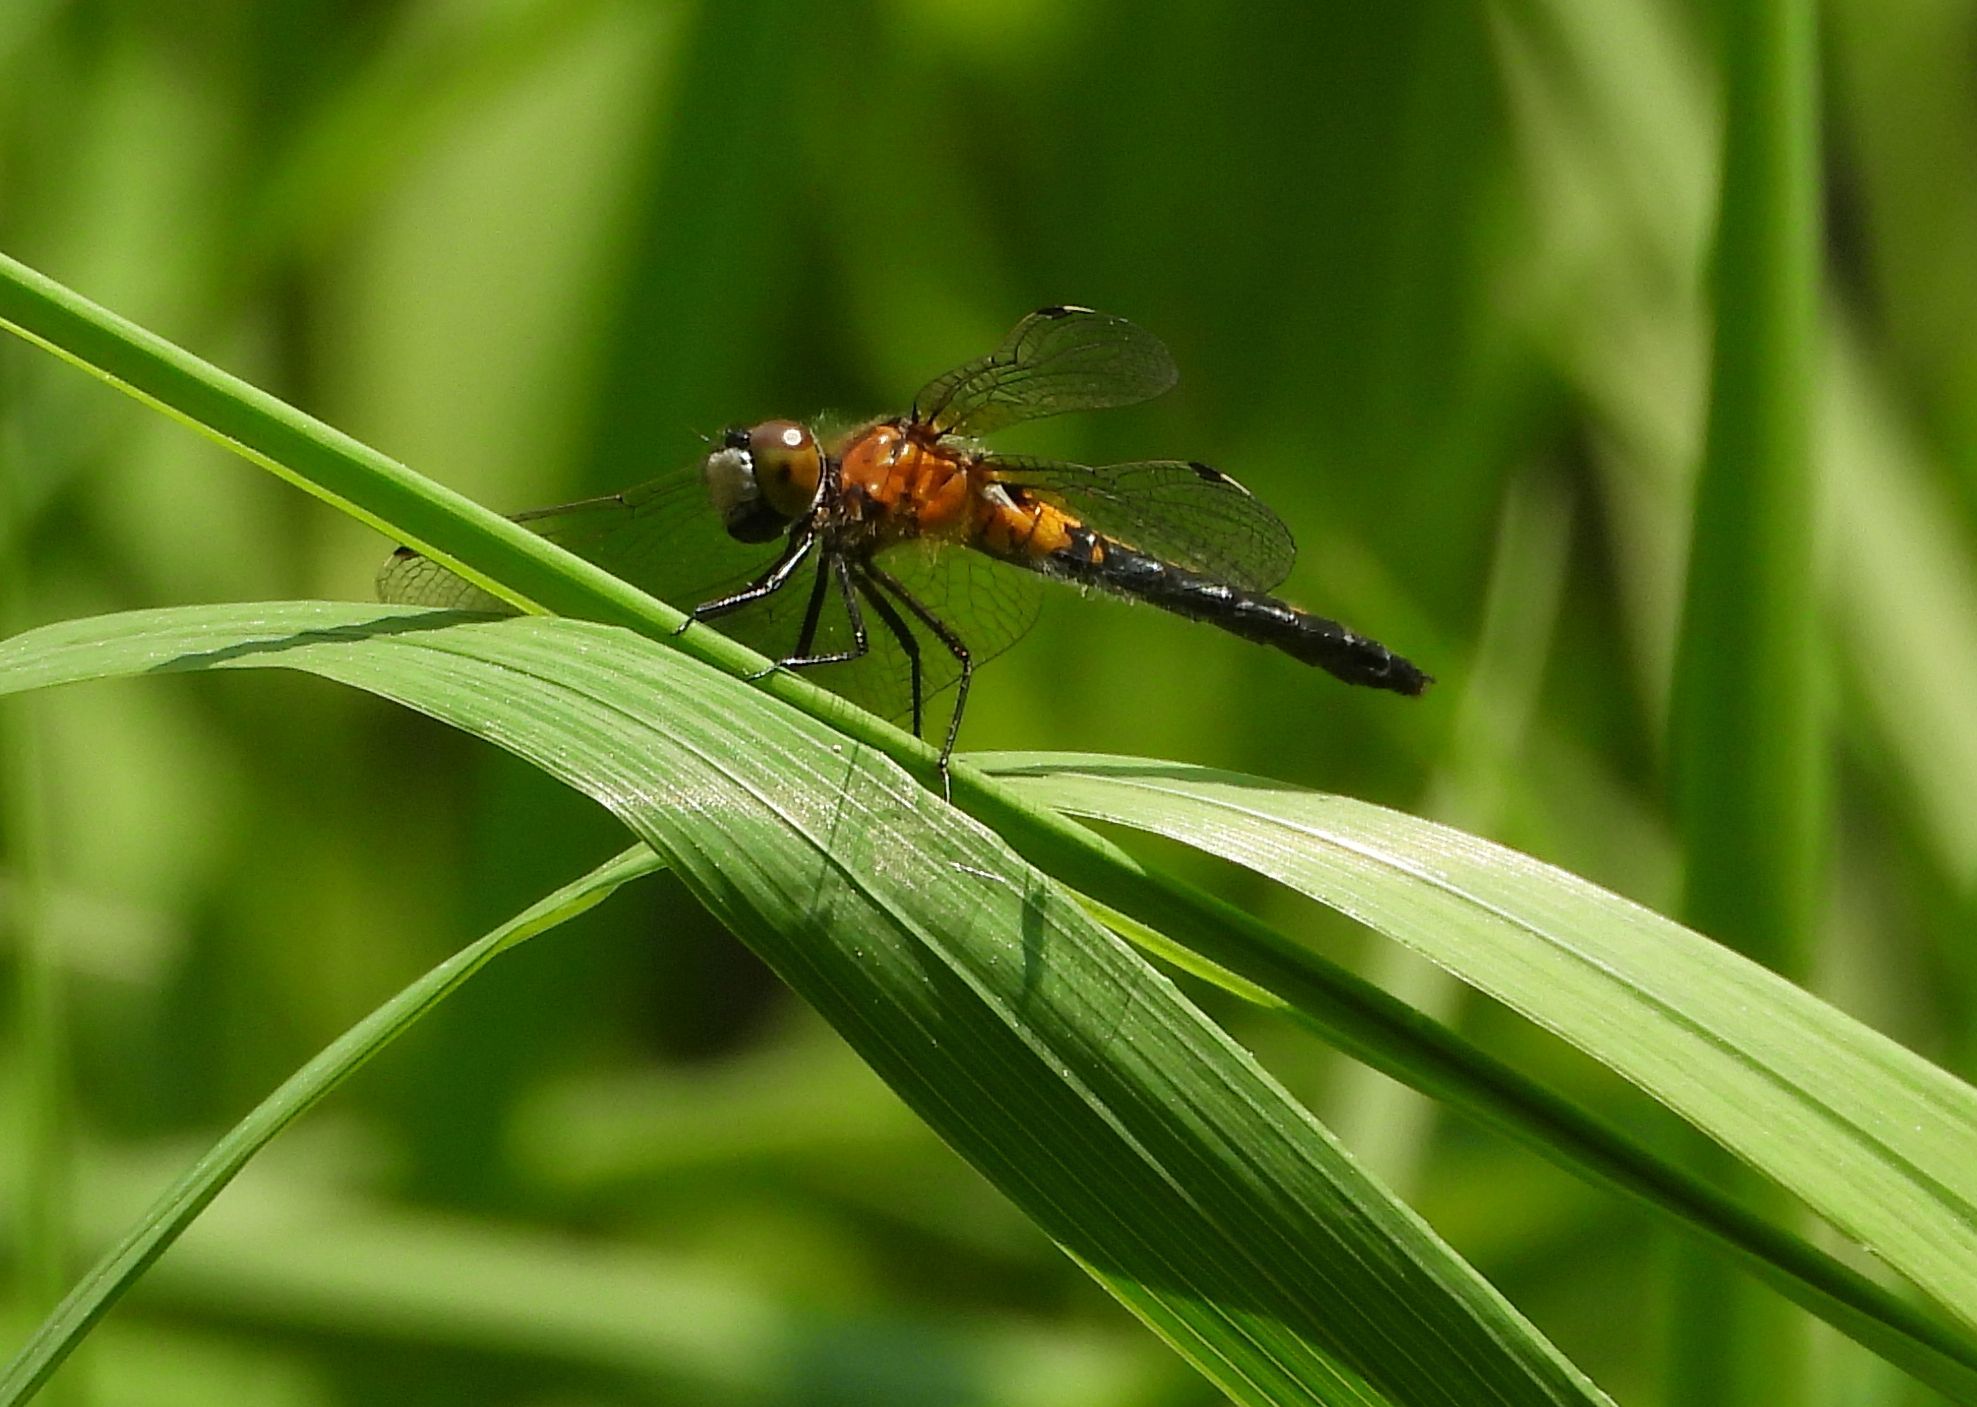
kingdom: Animalia
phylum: Arthropoda
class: Insecta
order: Odonata
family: Libellulidae
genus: Leucorrhinia
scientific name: Leucorrhinia frigida
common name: Frosted whiteface
